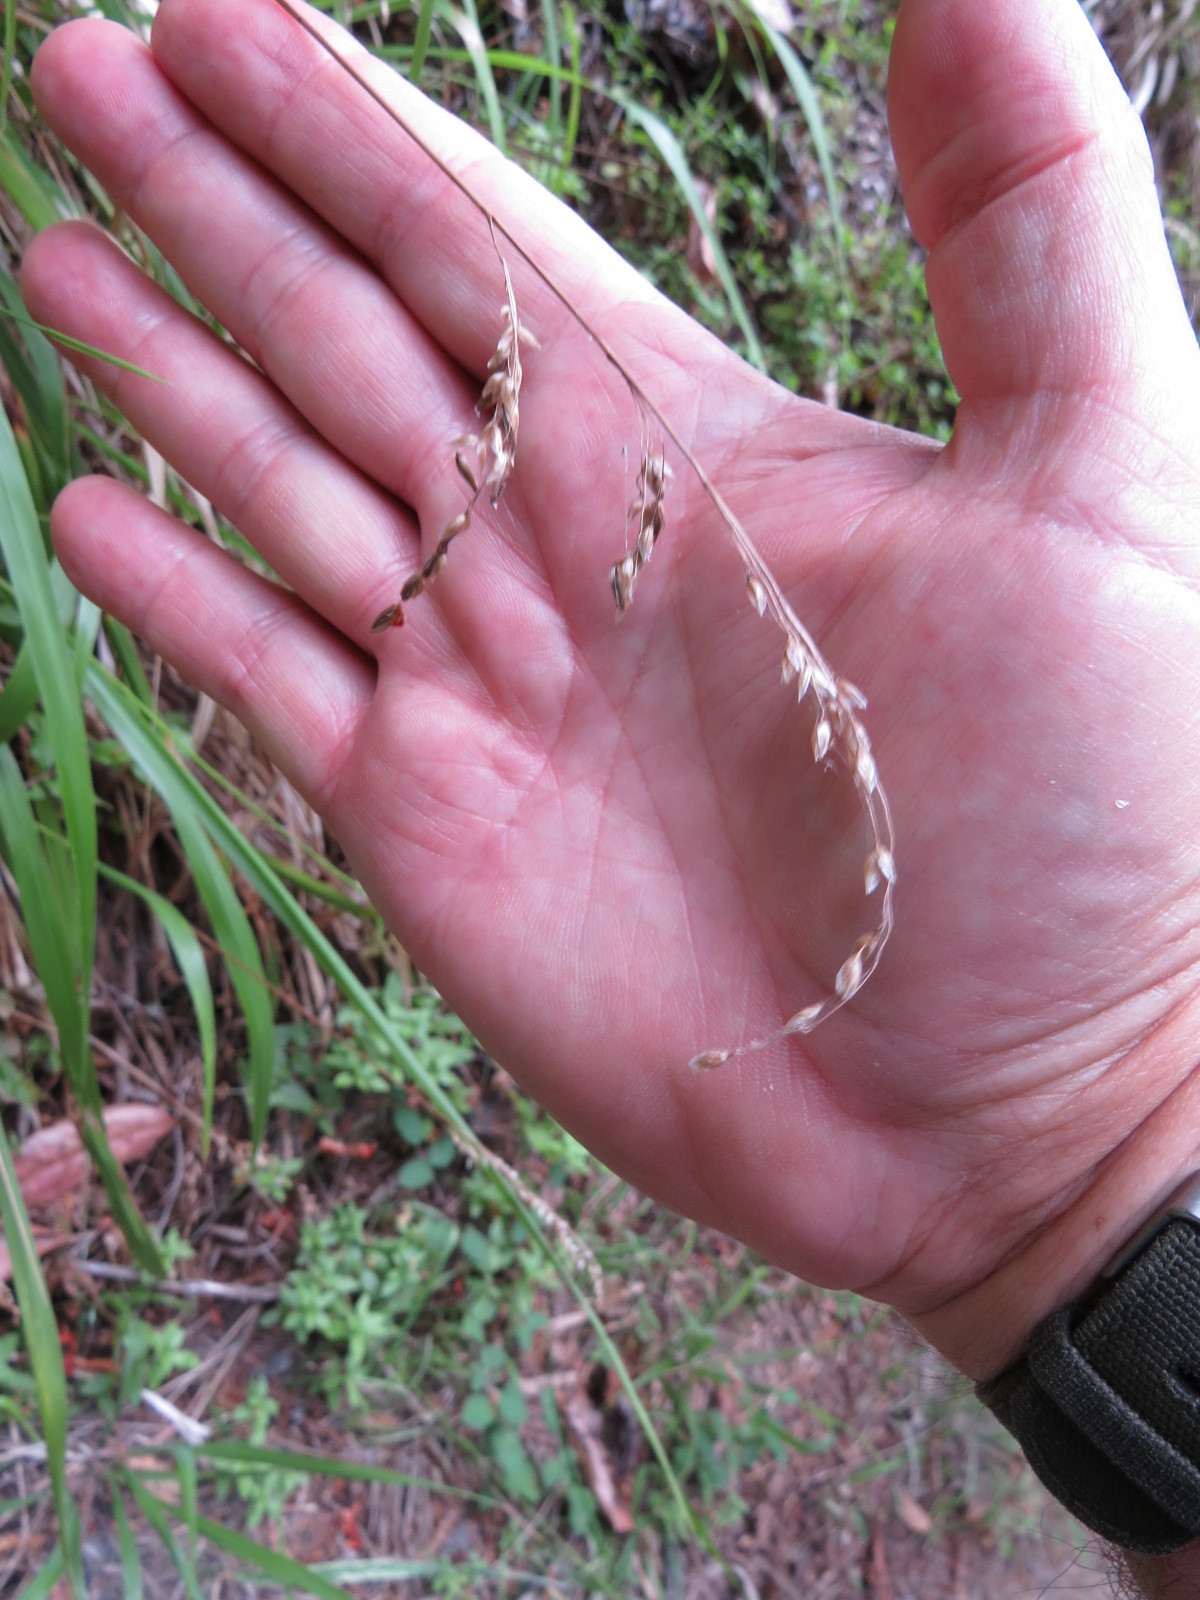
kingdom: Plantae
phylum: Tracheophyta
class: Liliopsida
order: Poales
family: Poaceae
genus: Anthoxanthum
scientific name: Anthoxanthum occidentale
